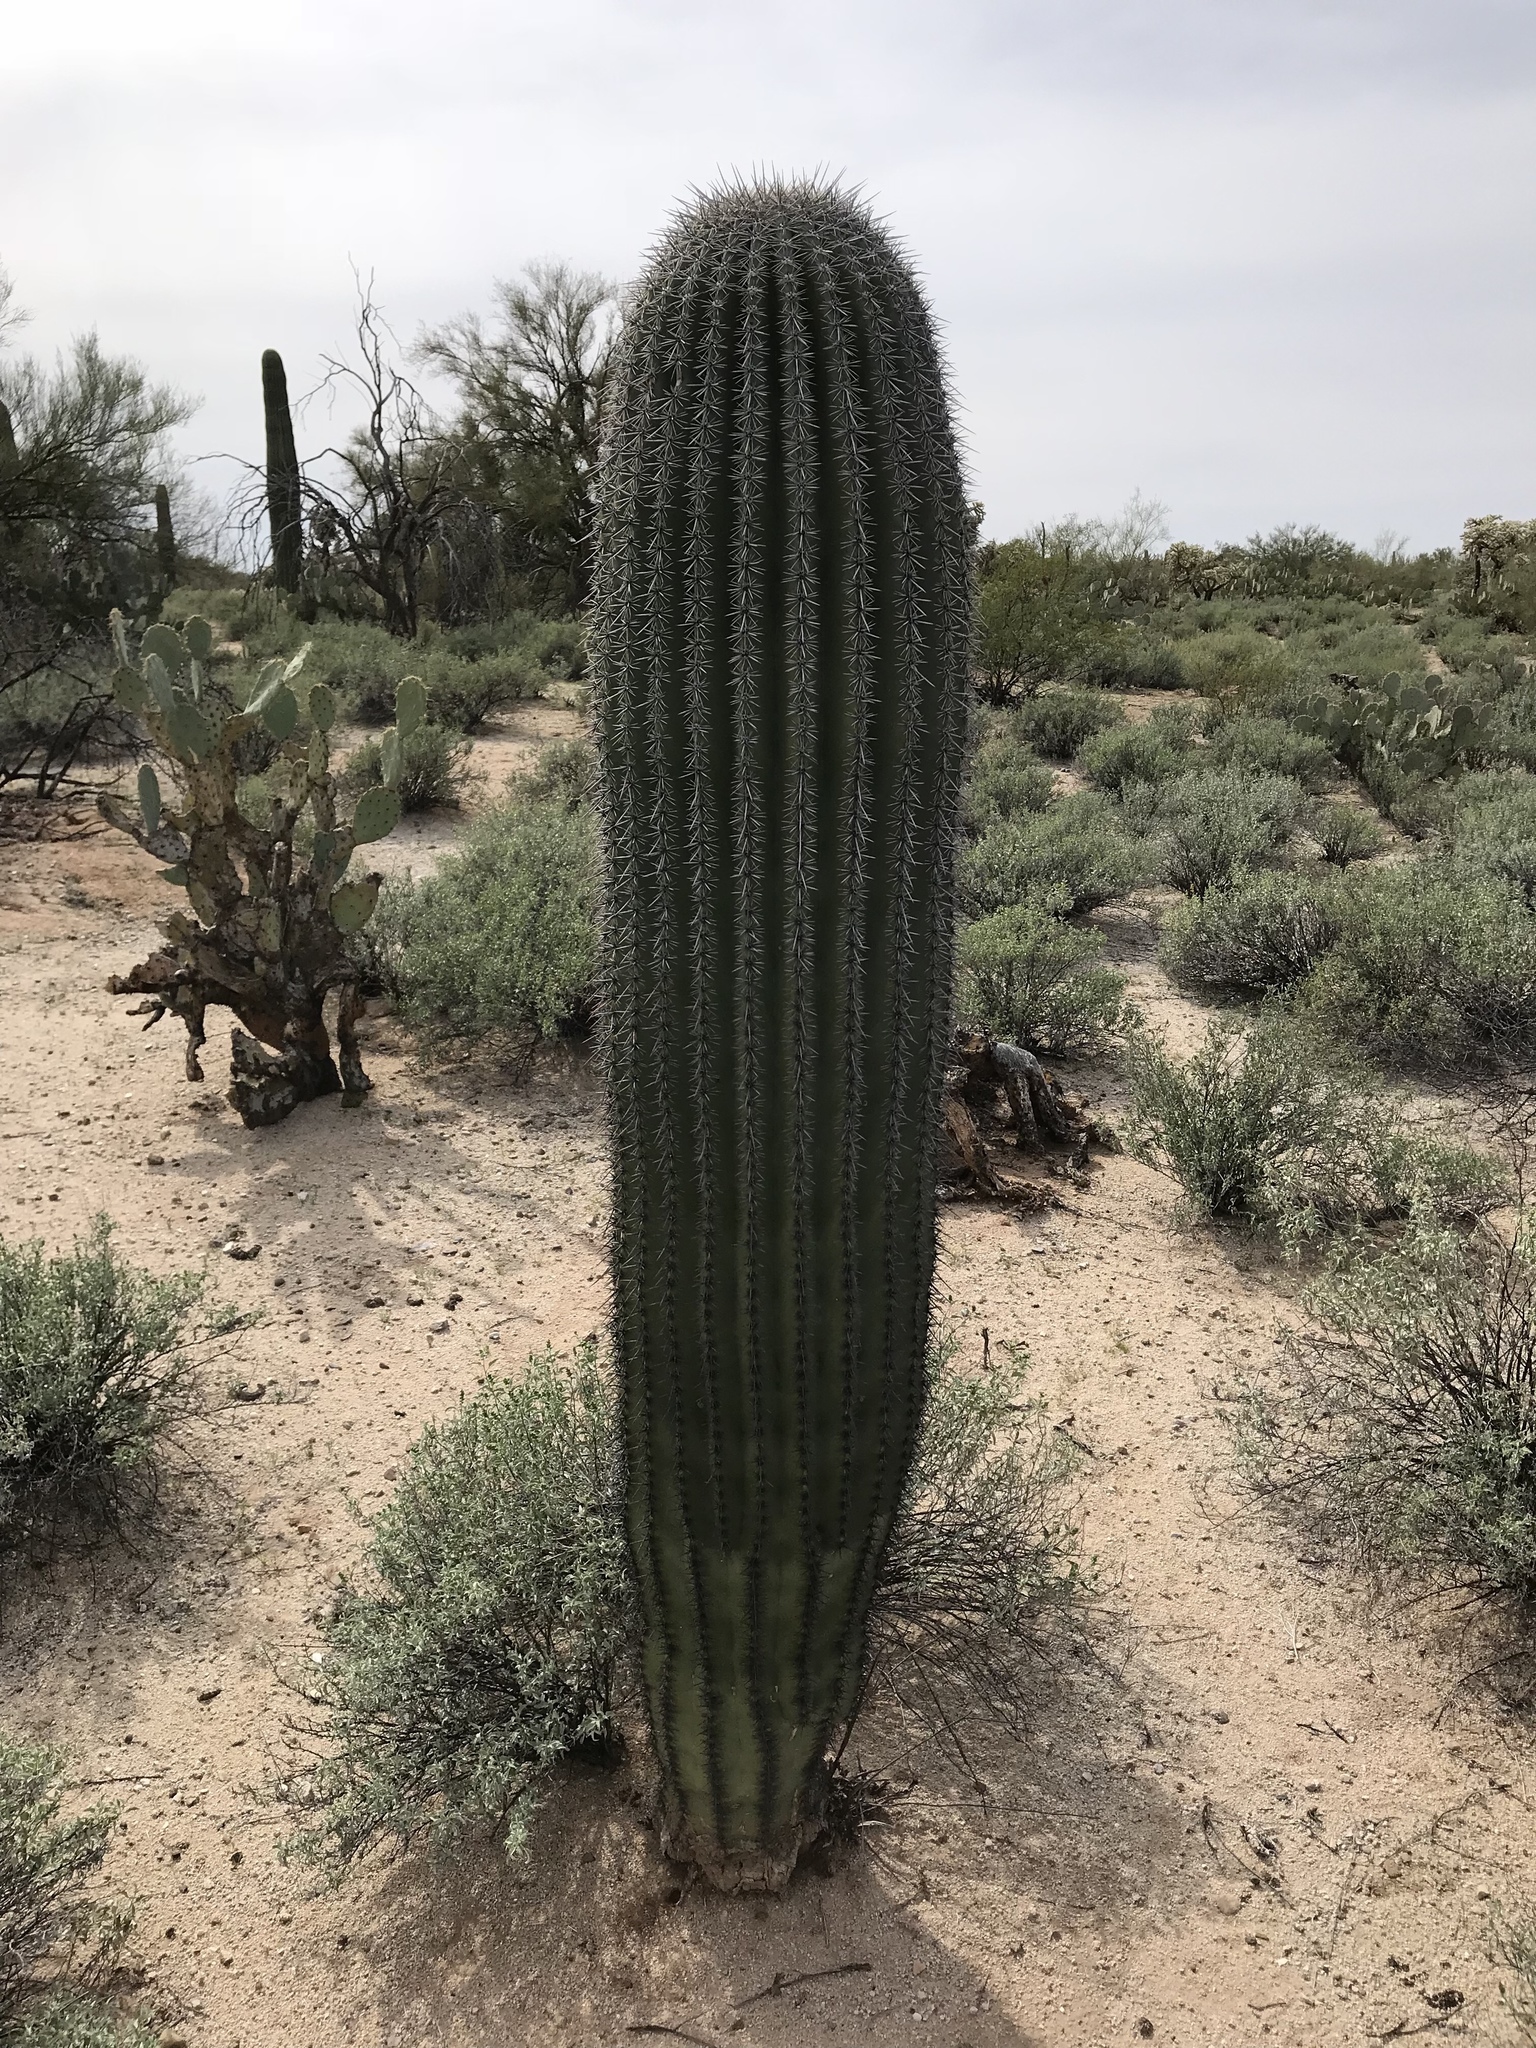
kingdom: Plantae
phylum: Tracheophyta
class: Magnoliopsida
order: Caryophyllales
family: Cactaceae
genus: Carnegiea
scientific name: Carnegiea gigantea
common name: Saguaro
